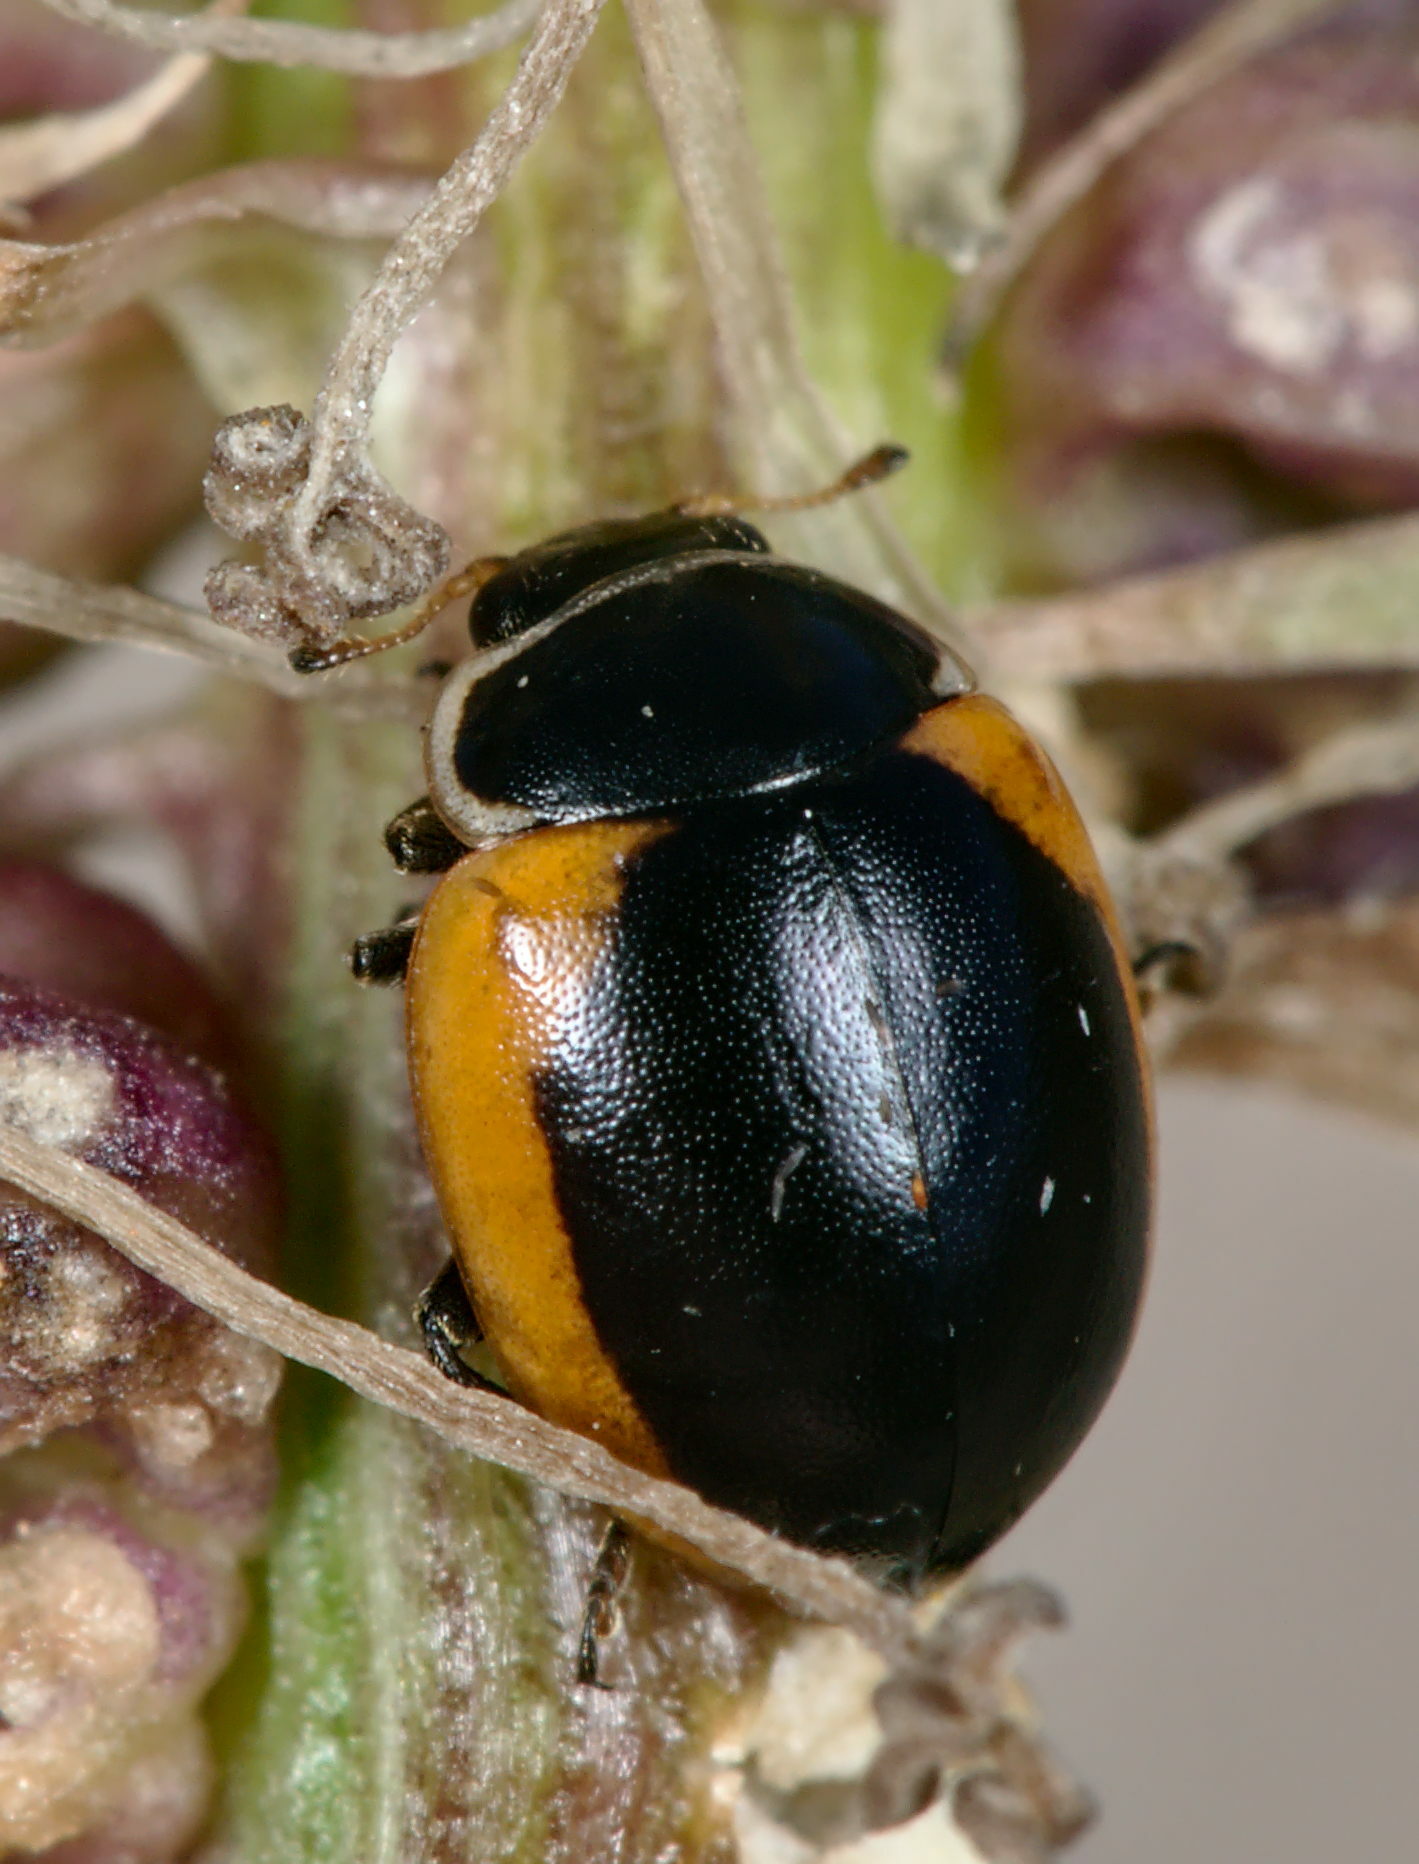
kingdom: Animalia
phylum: Arthropoda
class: Insecta
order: Coleoptera
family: Coccinellidae
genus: Ceratomegilla
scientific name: Ceratomegilla Semiadalia rufocincta
